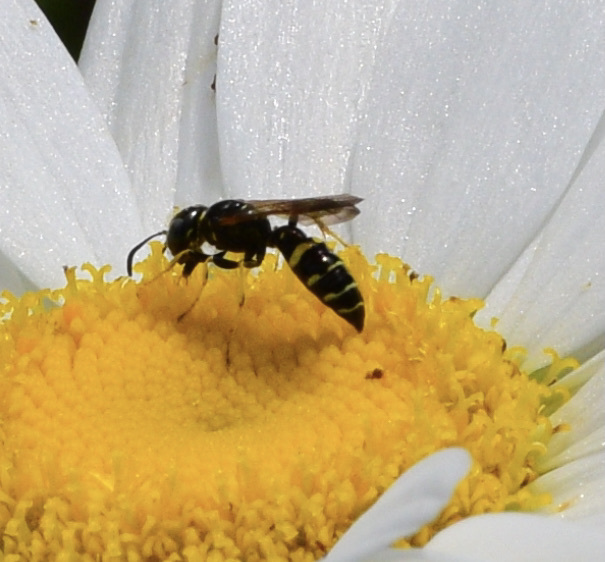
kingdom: Animalia
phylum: Arthropoda
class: Insecta
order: Hymenoptera
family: Crabronidae
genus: Philanthus
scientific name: Philanthus bilunatus
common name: Two moons beewolf
